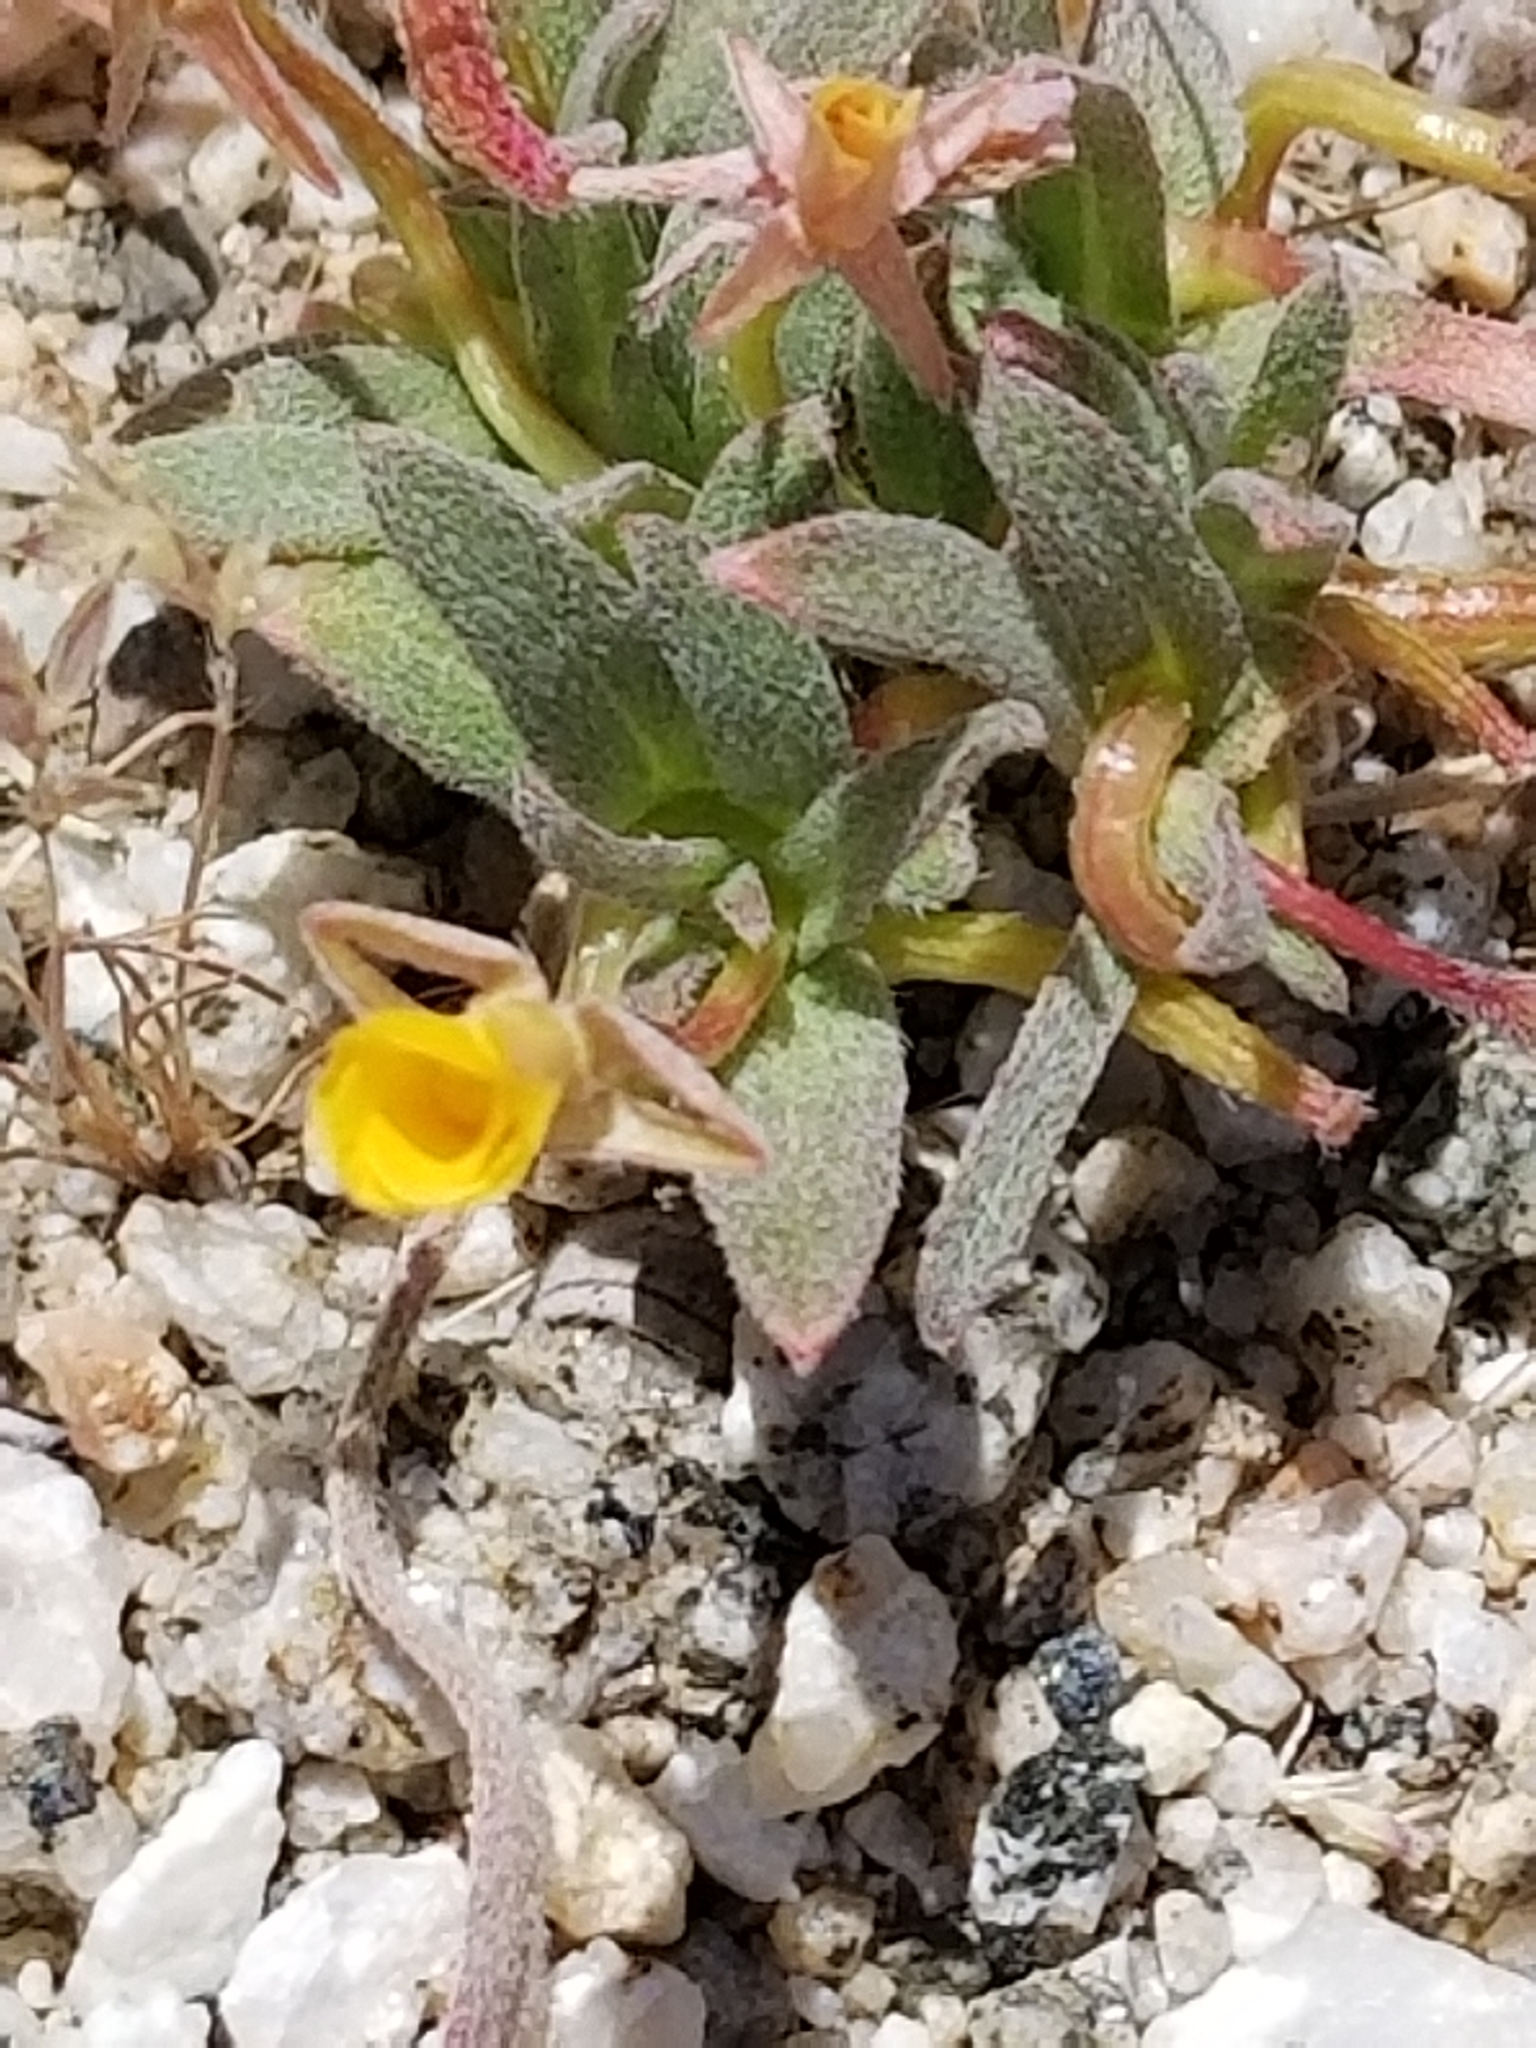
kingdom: Plantae
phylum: Tracheophyta
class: Magnoliopsida
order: Myrtales
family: Onagraceae
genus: Camissoniopsis
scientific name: Camissoniopsis pallida
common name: Paleyellow suncup
